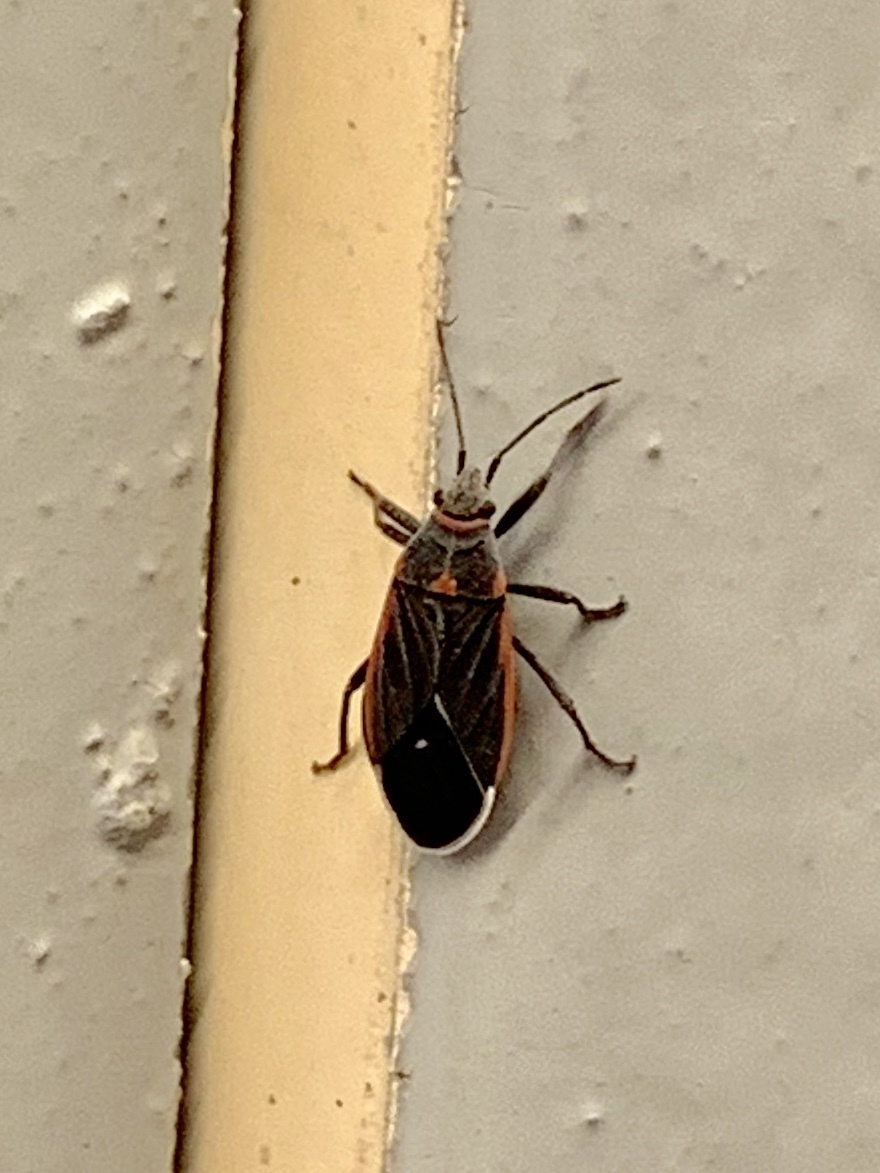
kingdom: Animalia
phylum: Arthropoda
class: Insecta
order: Hemiptera
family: Lygaeidae
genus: Melacoryphus
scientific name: Melacoryphus lateralis
